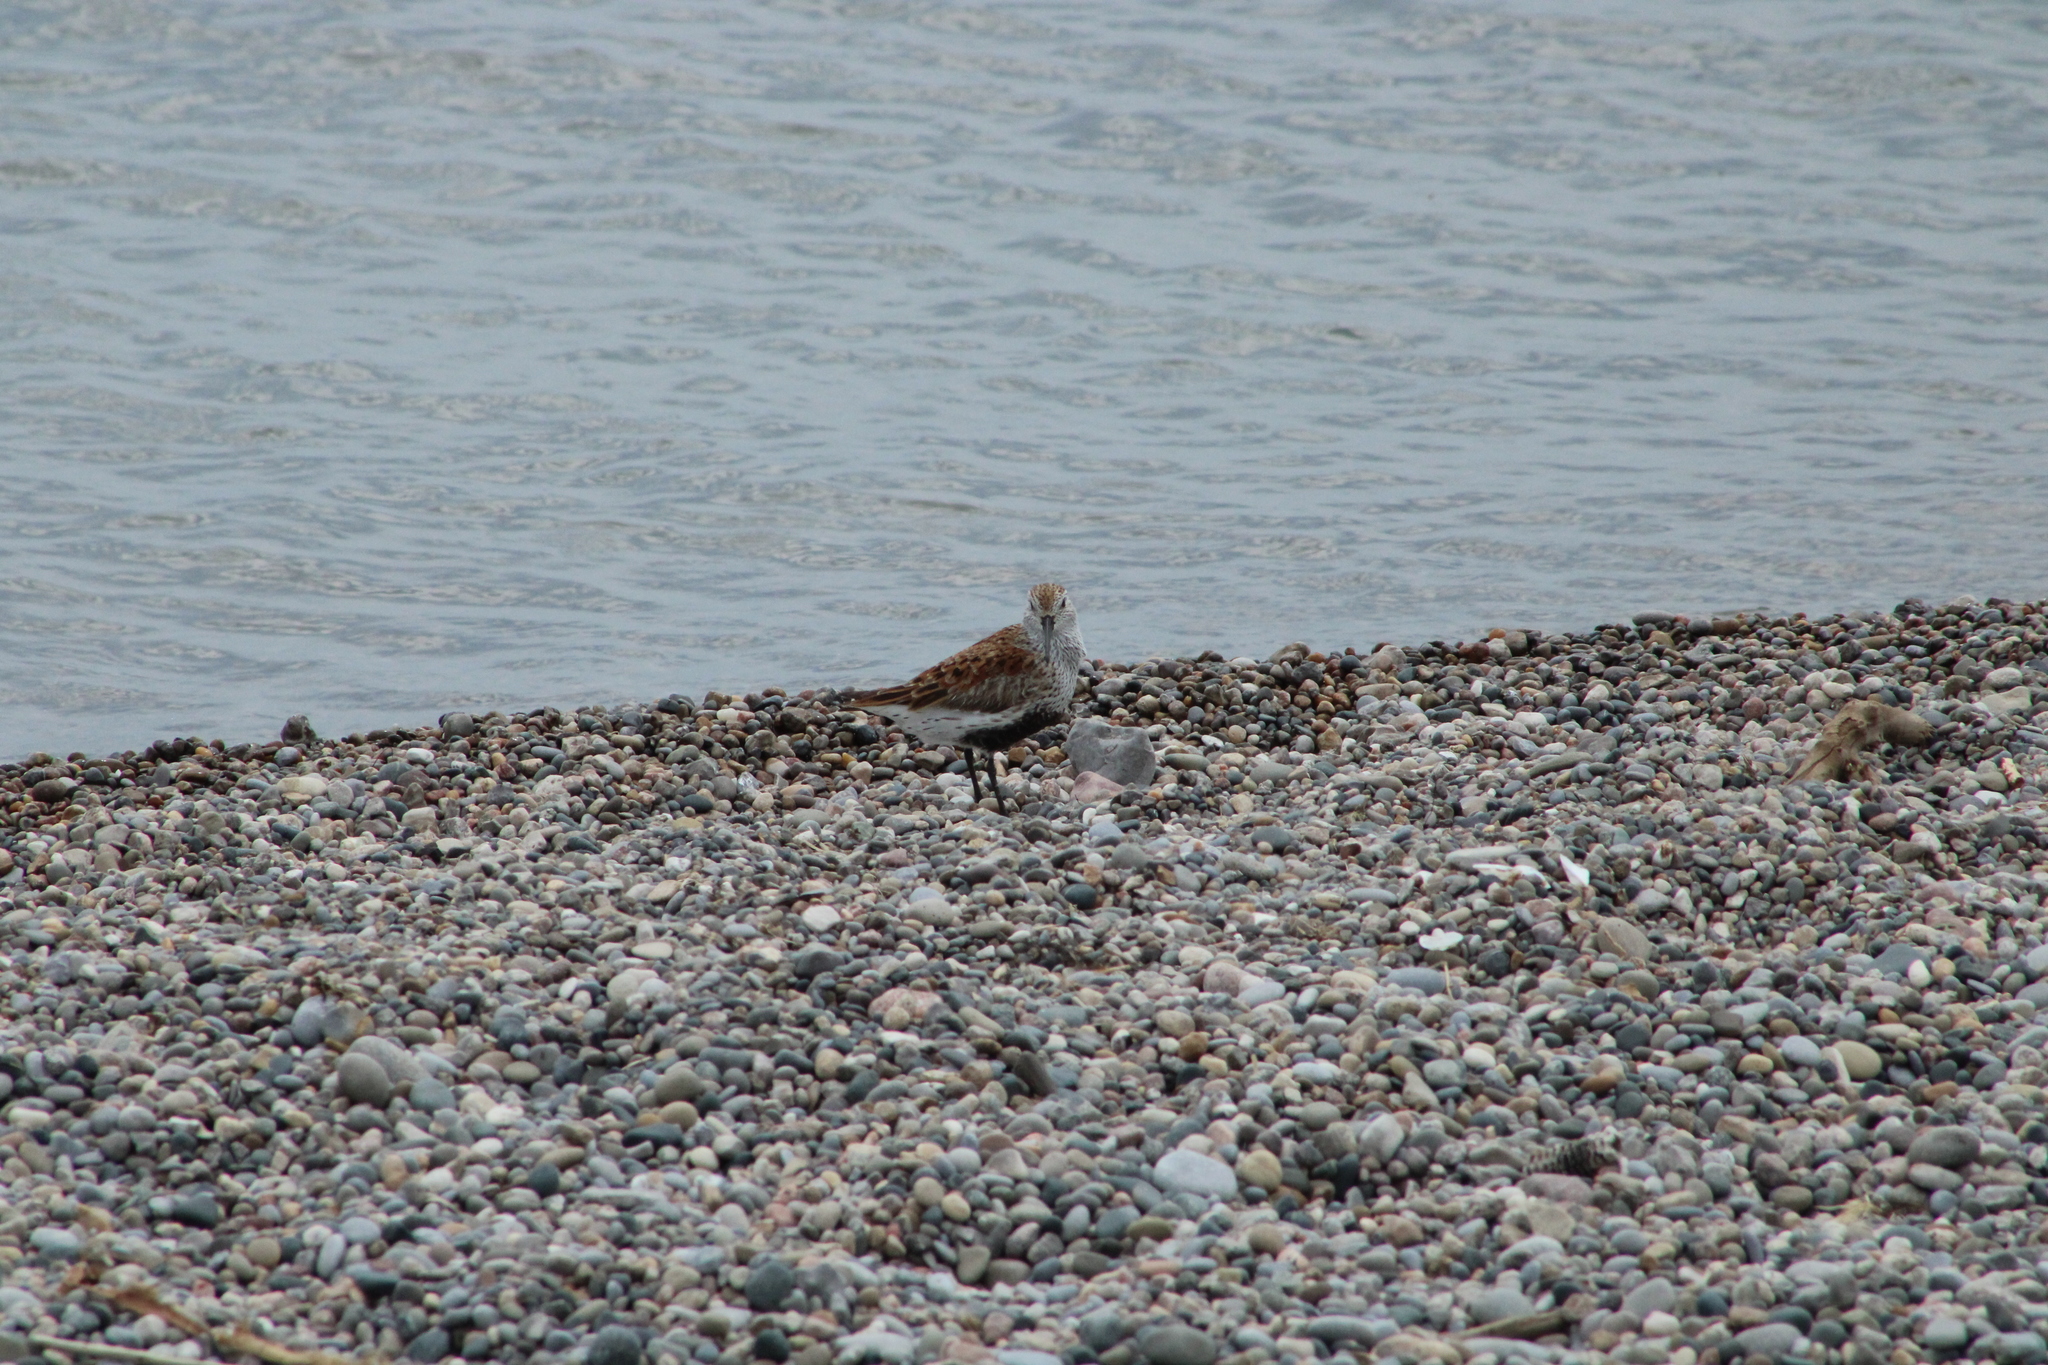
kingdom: Animalia
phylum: Chordata
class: Aves
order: Charadriiformes
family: Scolopacidae
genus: Calidris
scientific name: Calidris alpina
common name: Dunlin
